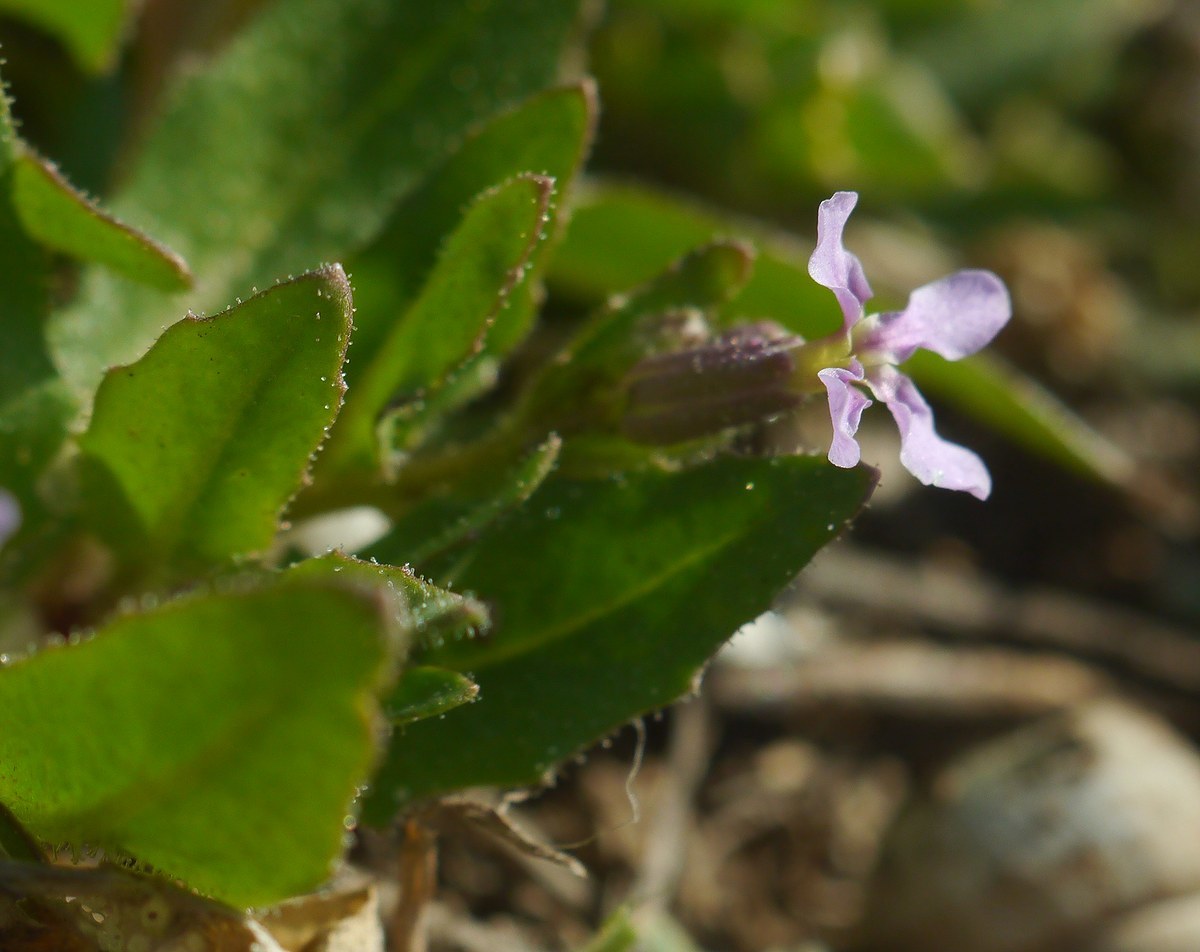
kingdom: Plantae
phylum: Tracheophyta
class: Magnoliopsida
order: Brassicales
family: Brassicaceae
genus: Chorispora
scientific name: Chorispora tenella
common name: Crossflower
